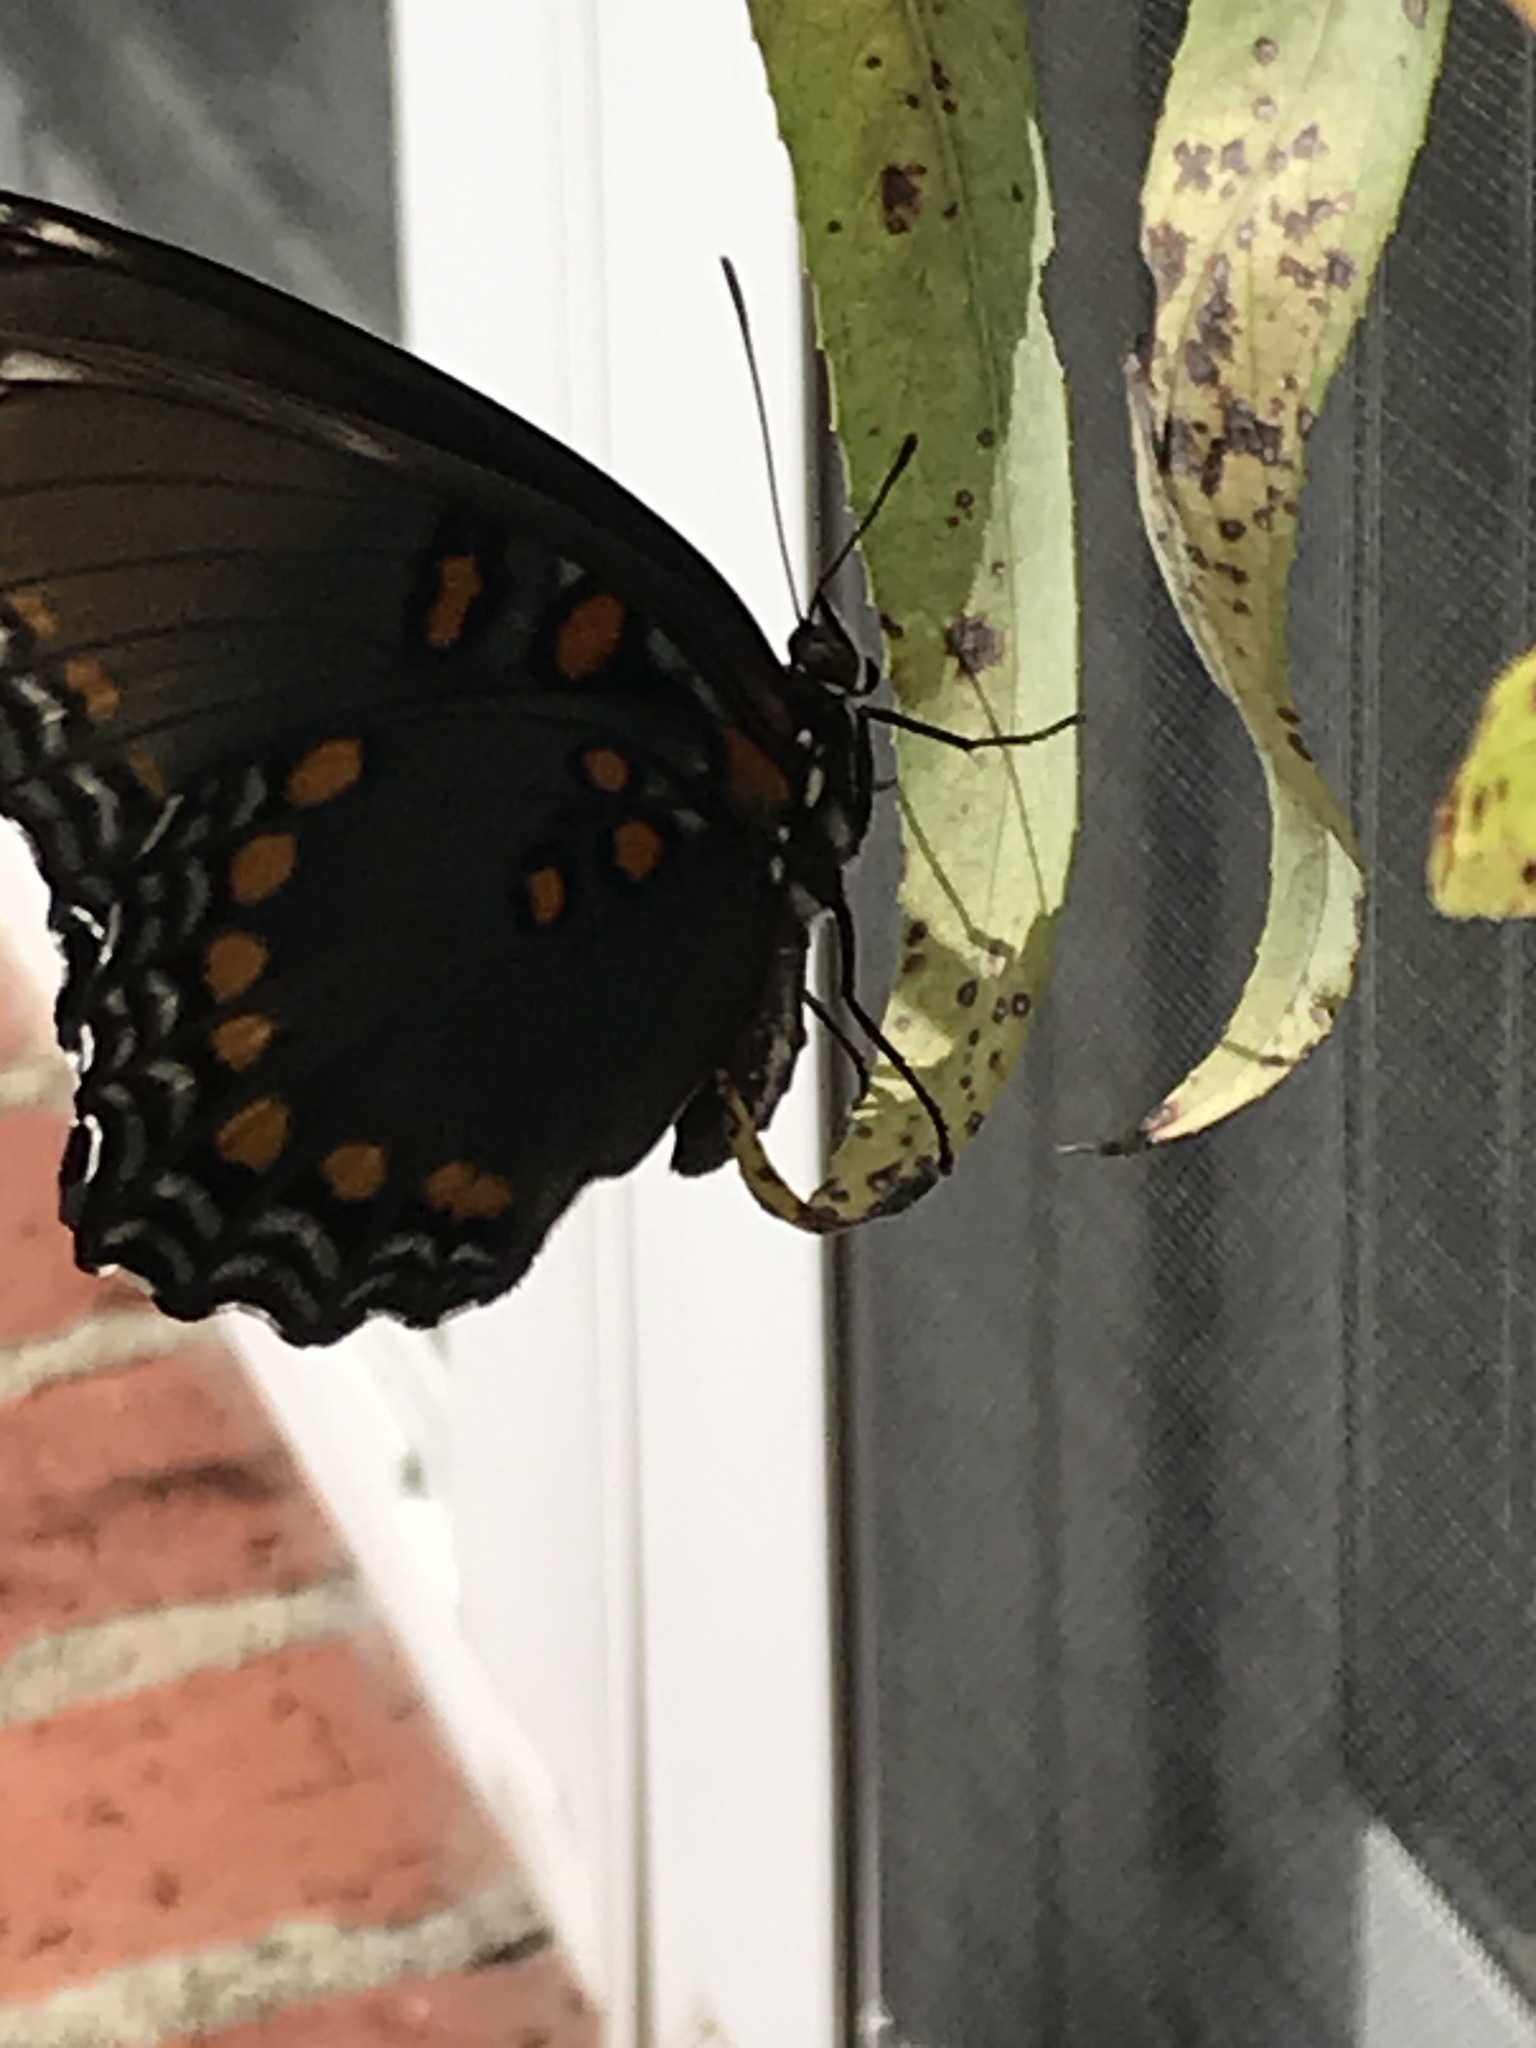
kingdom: Animalia
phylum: Arthropoda
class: Insecta
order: Lepidoptera
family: Nymphalidae
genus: Limenitis
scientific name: Limenitis astyanax
